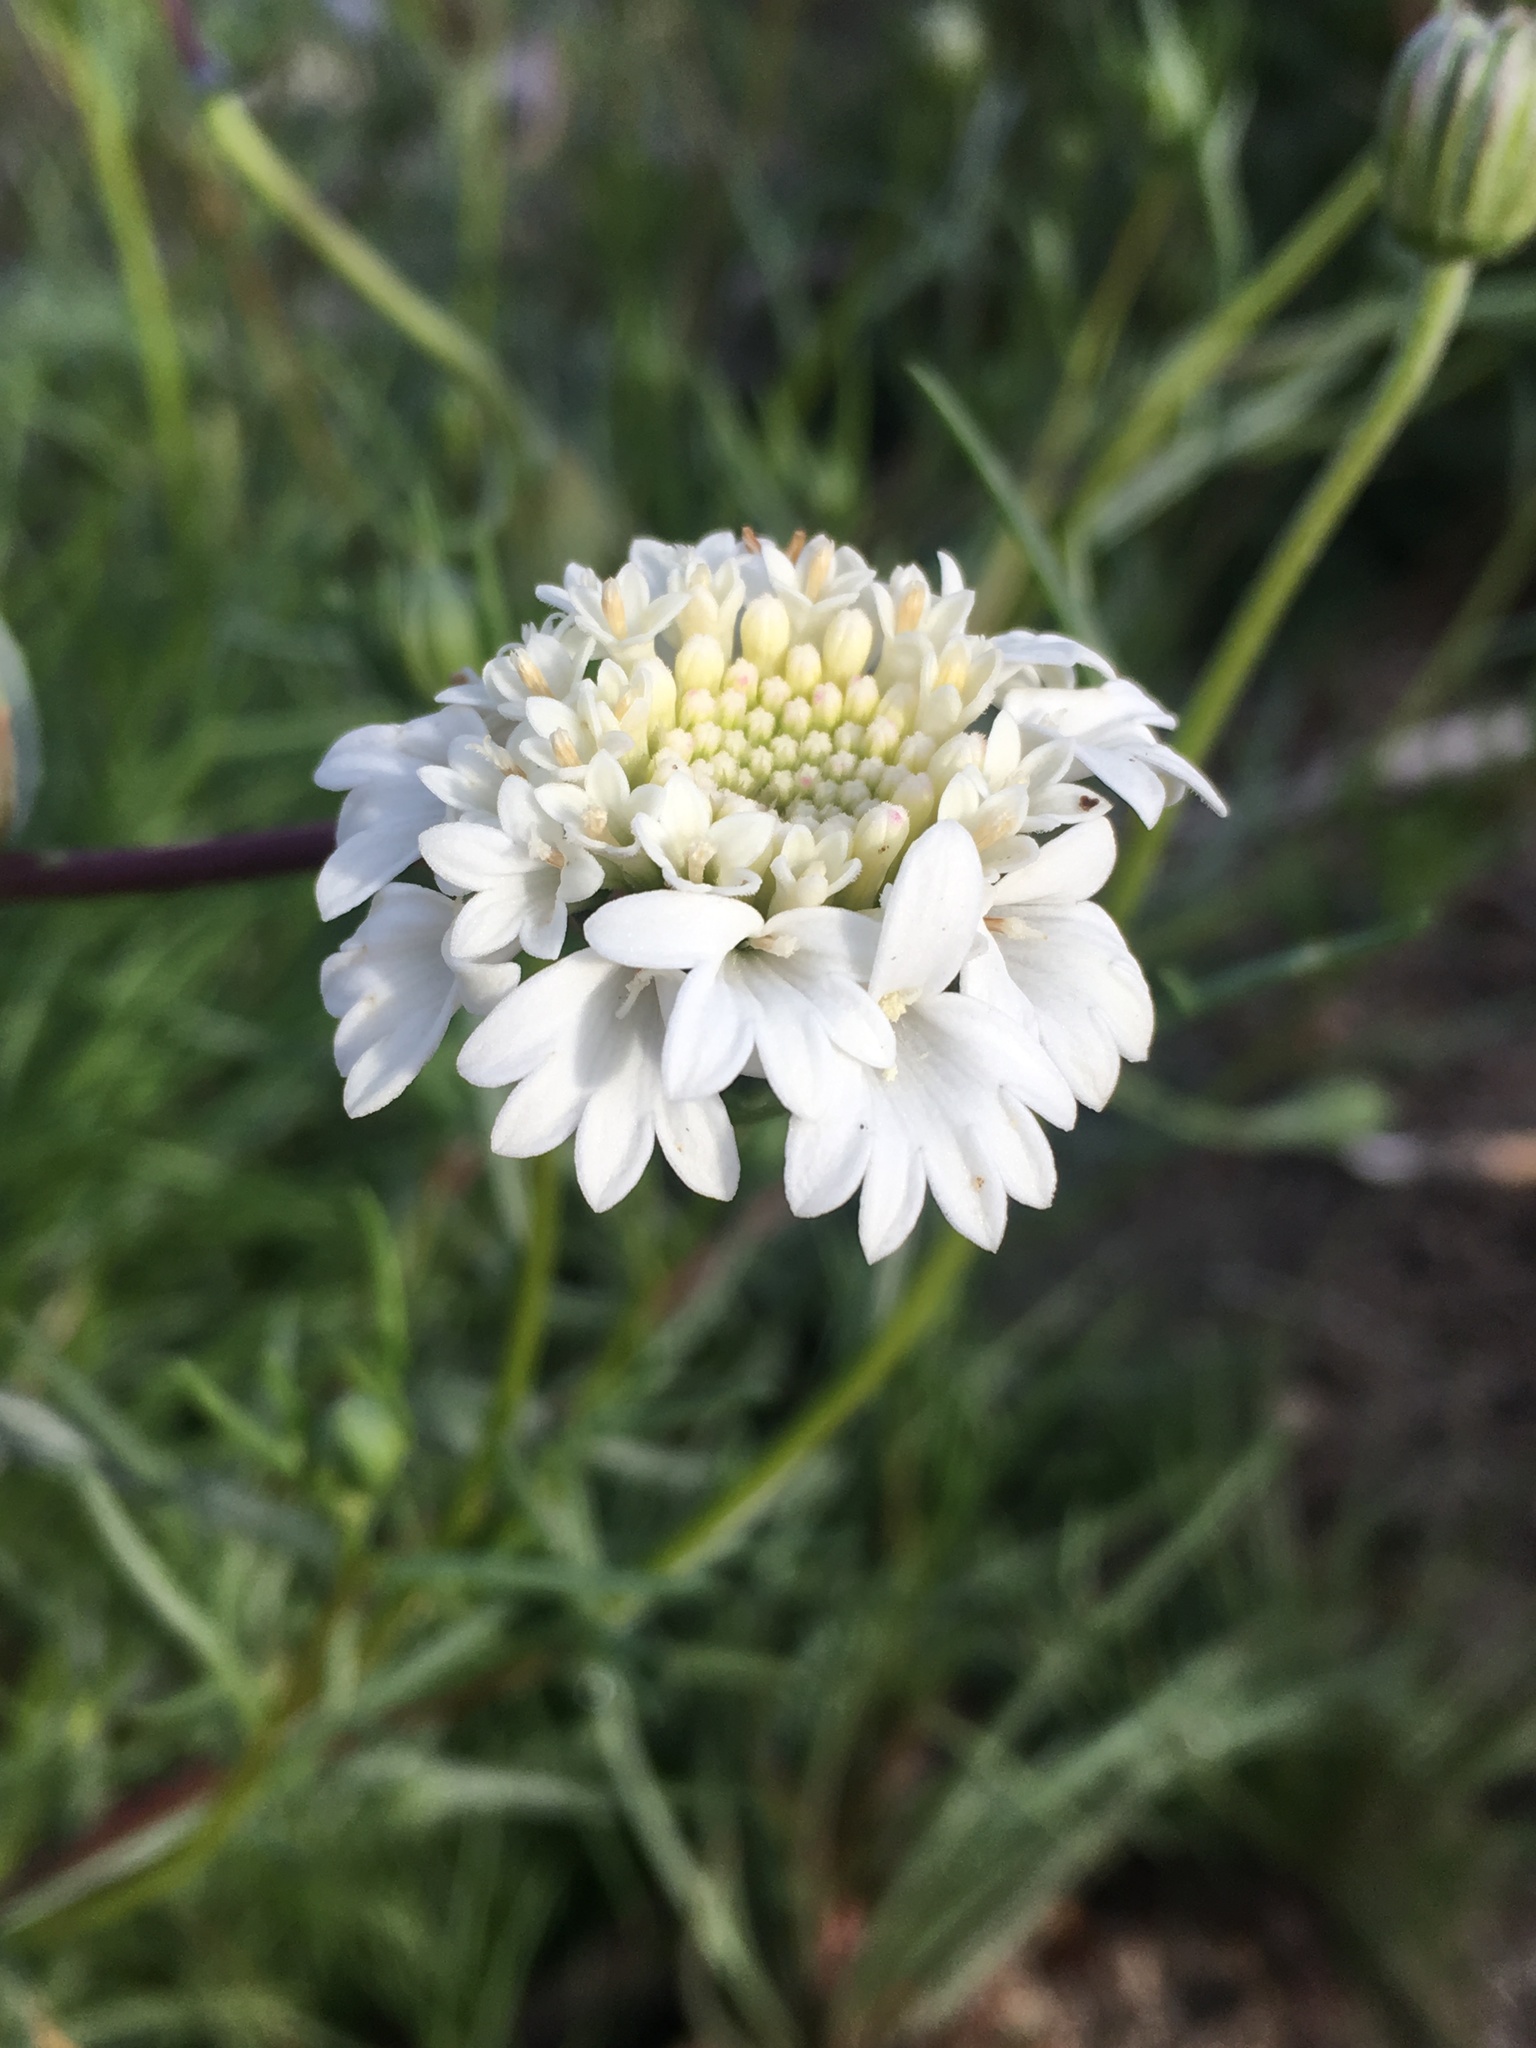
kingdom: Plantae
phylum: Tracheophyta
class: Magnoliopsida
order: Asterales
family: Asteraceae
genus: Chaenactis
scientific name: Chaenactis fremontii
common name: Fremont pincushion
